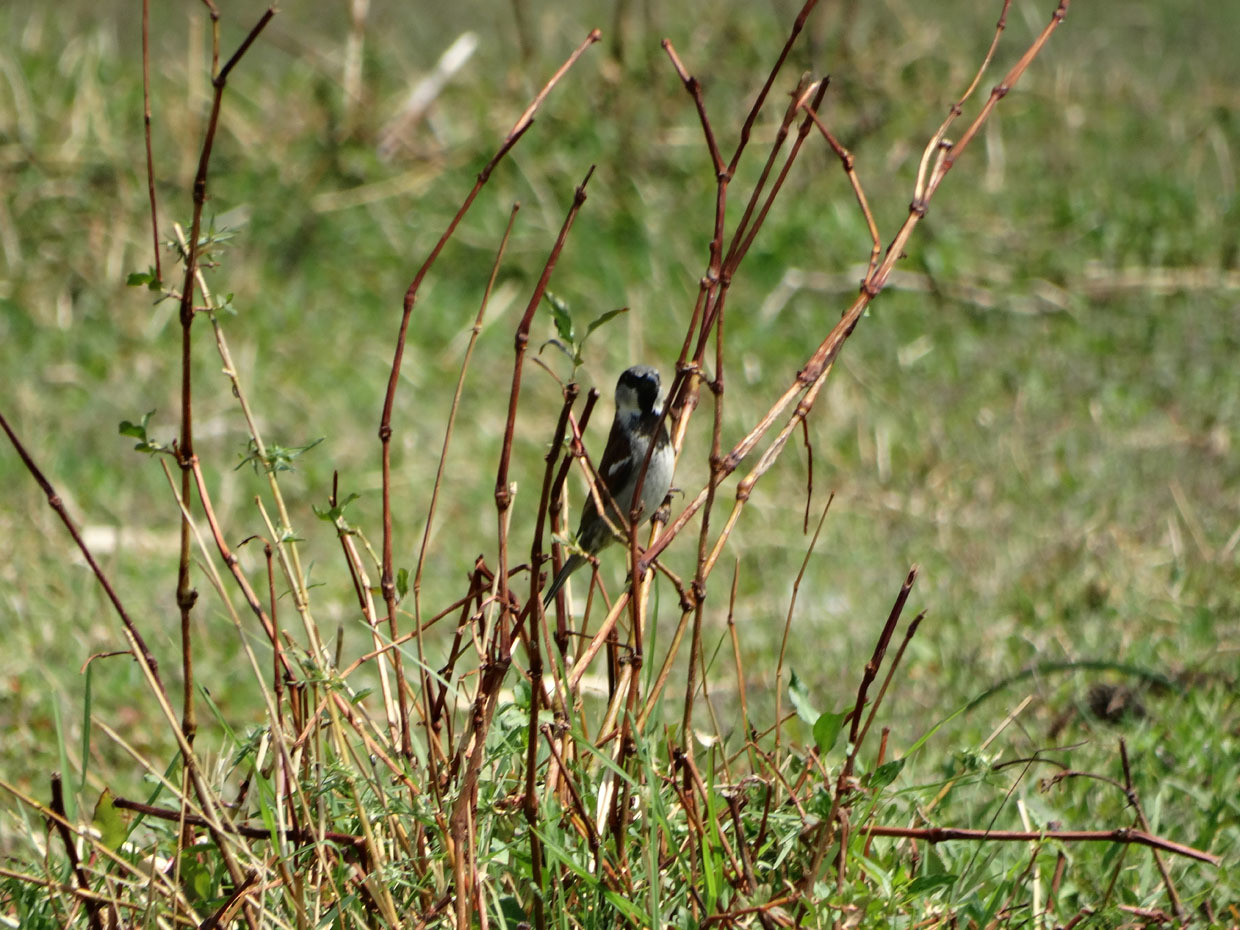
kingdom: Animalia
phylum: Chordata
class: Aves
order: Passeriformes
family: Passeridae
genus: Passer
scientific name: Passer domesticus
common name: House sparrow
